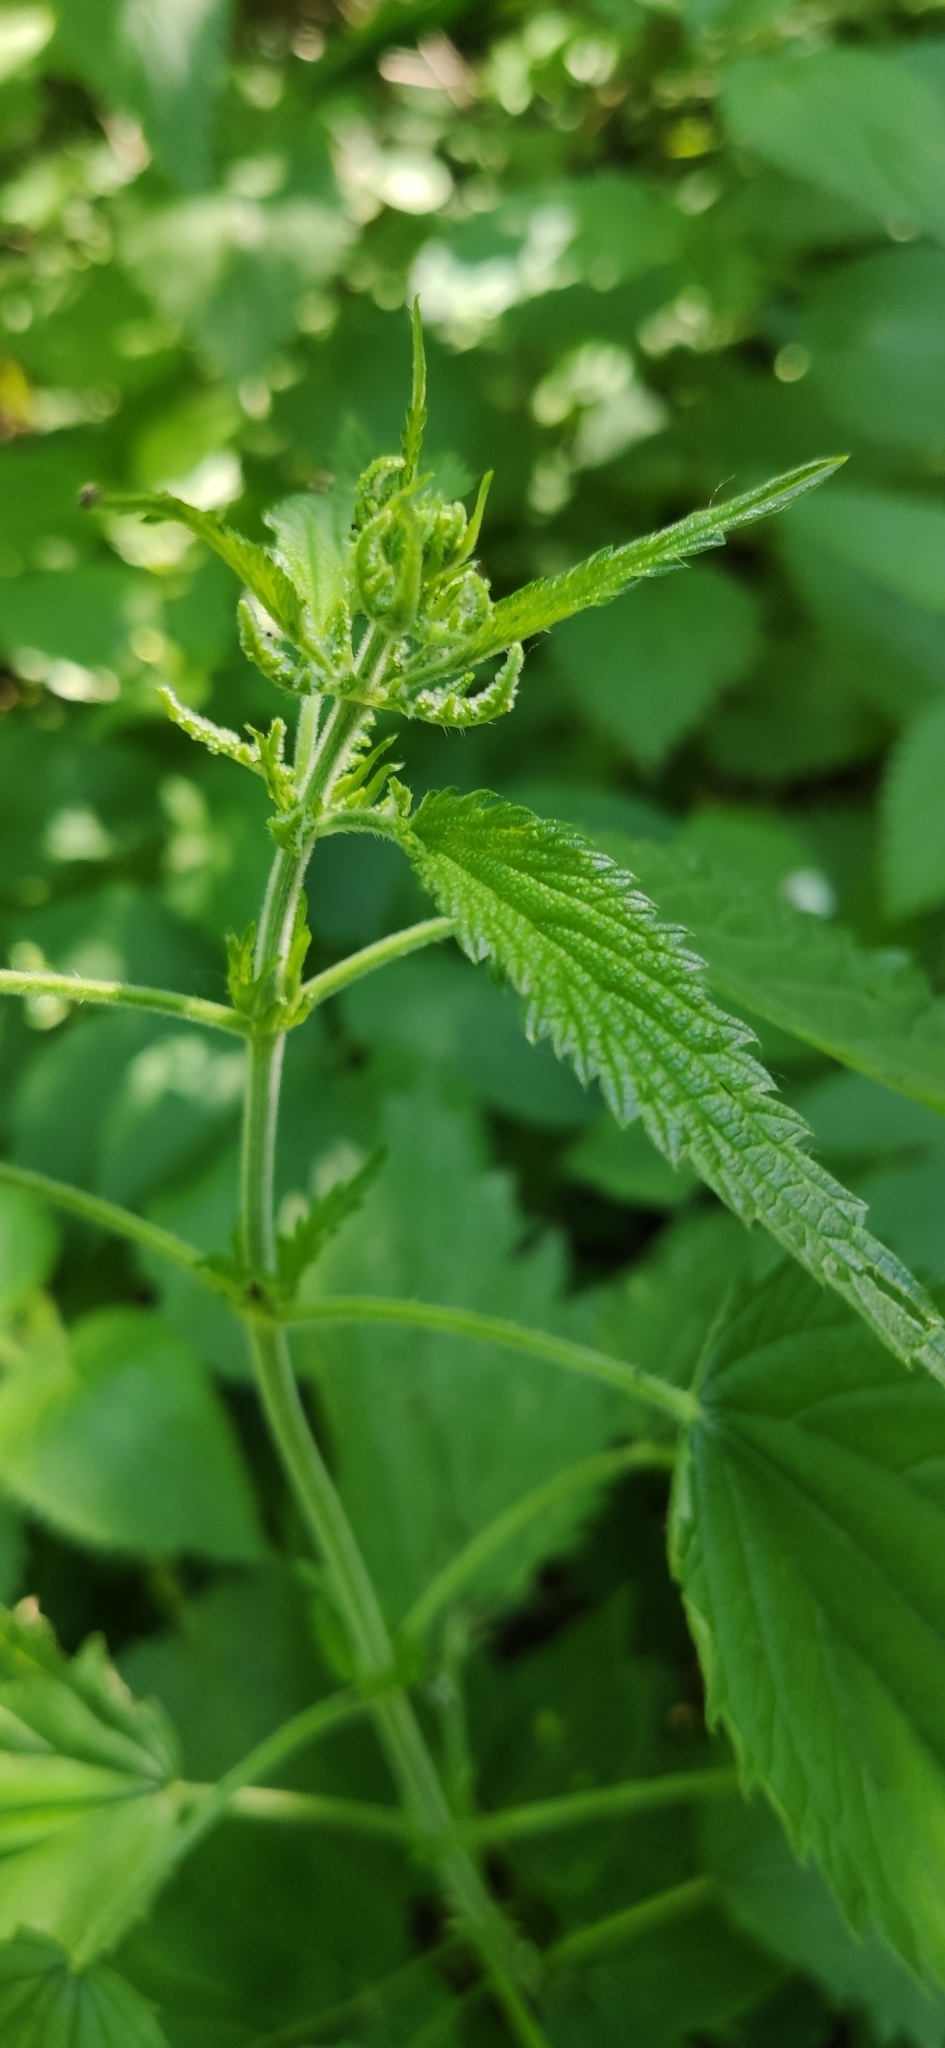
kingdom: Plantae
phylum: Tracheophyta
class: Magnoliopsida
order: Rosales
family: Urticaceae
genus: Urtica
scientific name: Urtica dioica
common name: Common nettle
